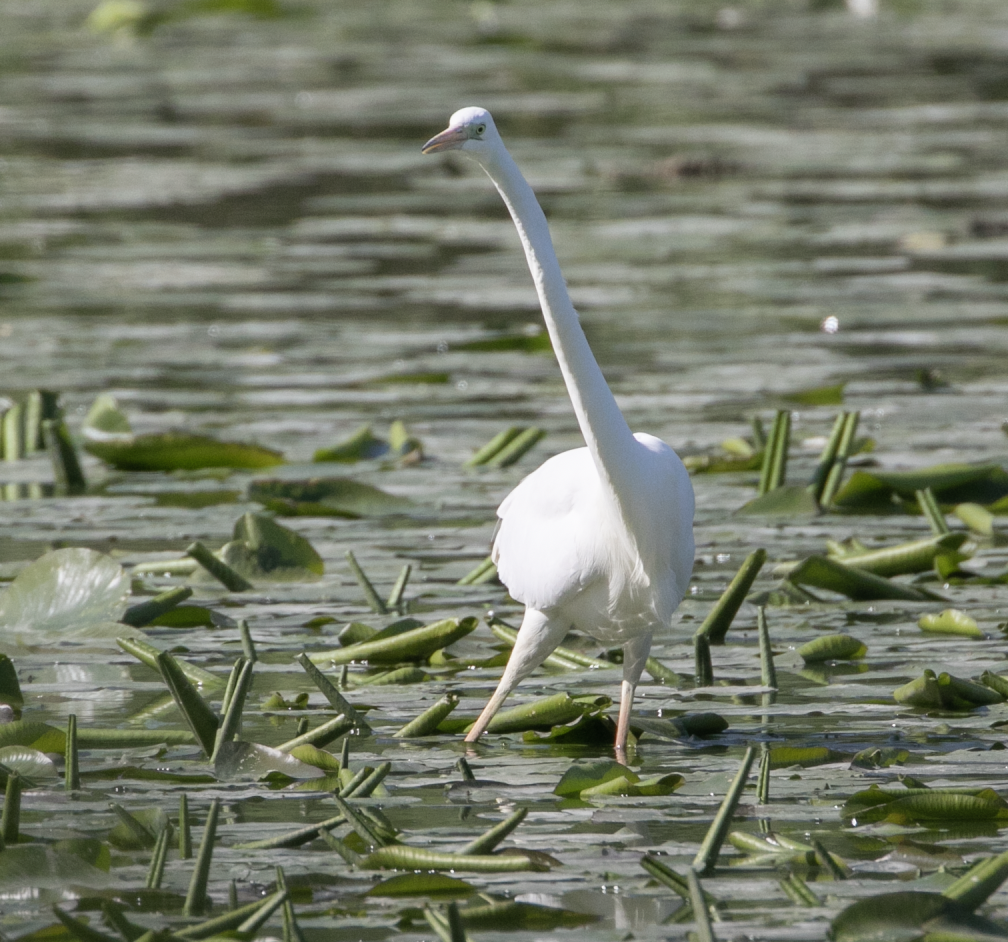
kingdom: Animalia
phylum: Chordata
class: Aves
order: Pelecaniformes
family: Ardeidae
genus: Ardea
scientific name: Ardea alba
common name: Great egret
